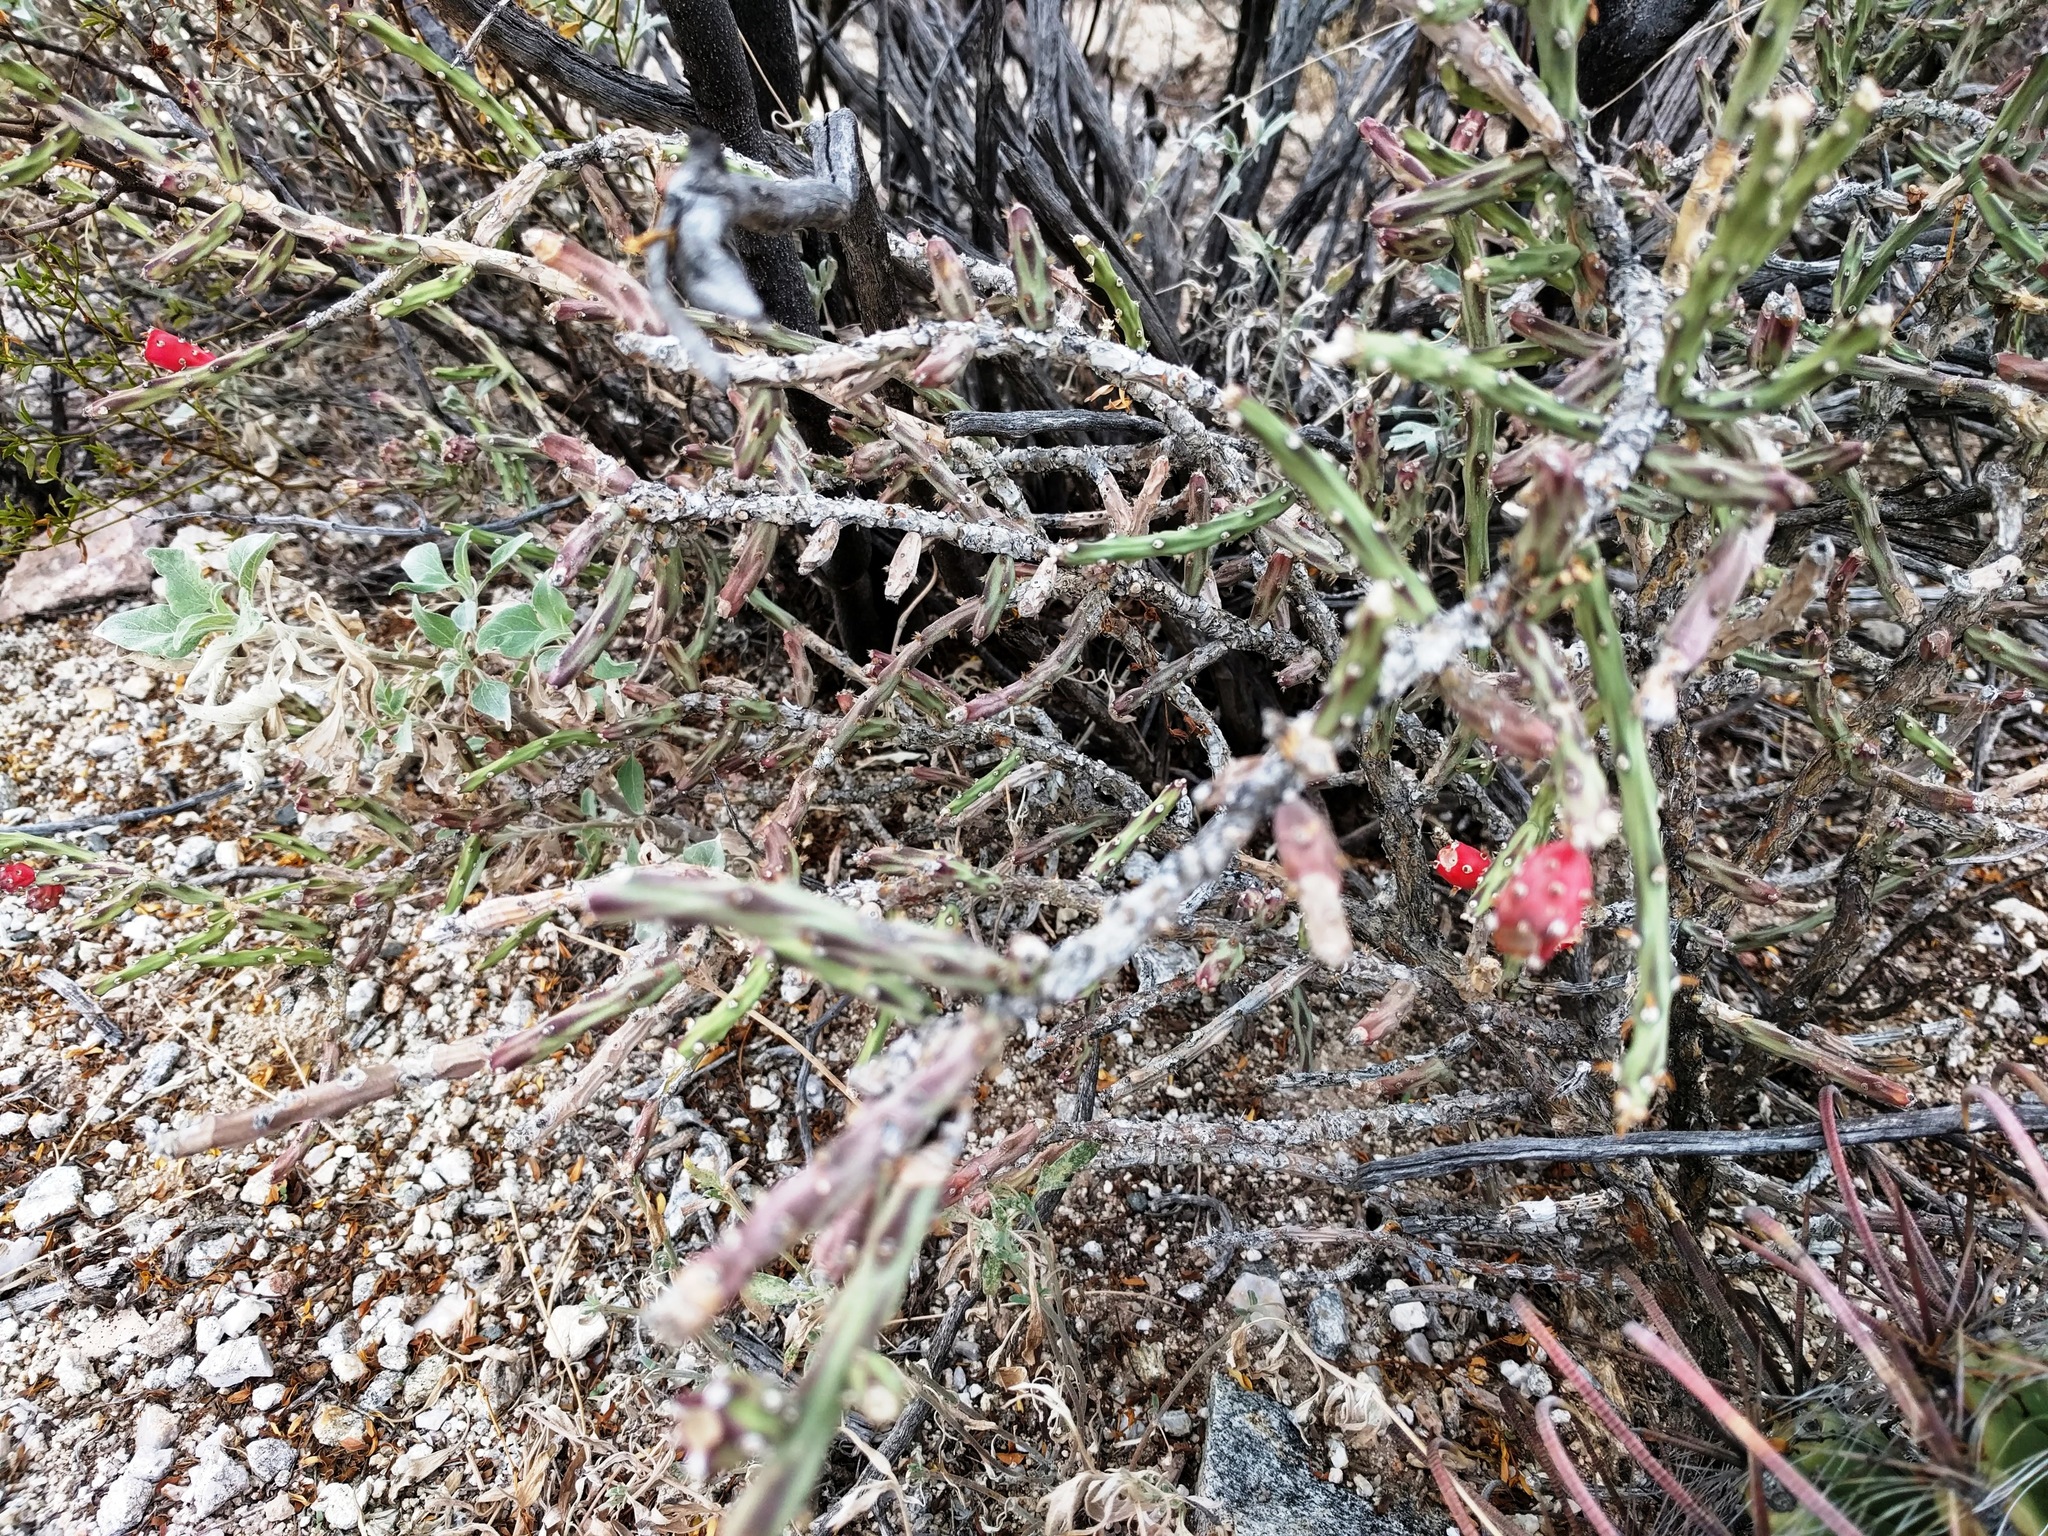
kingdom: Plantae
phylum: Tracheophyta
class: Magnoliopsida
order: Caryophyllales
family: Cactaceae
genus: Cylindropuntia
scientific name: Cylindropuntia leptocaulis
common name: Christmas cactus
